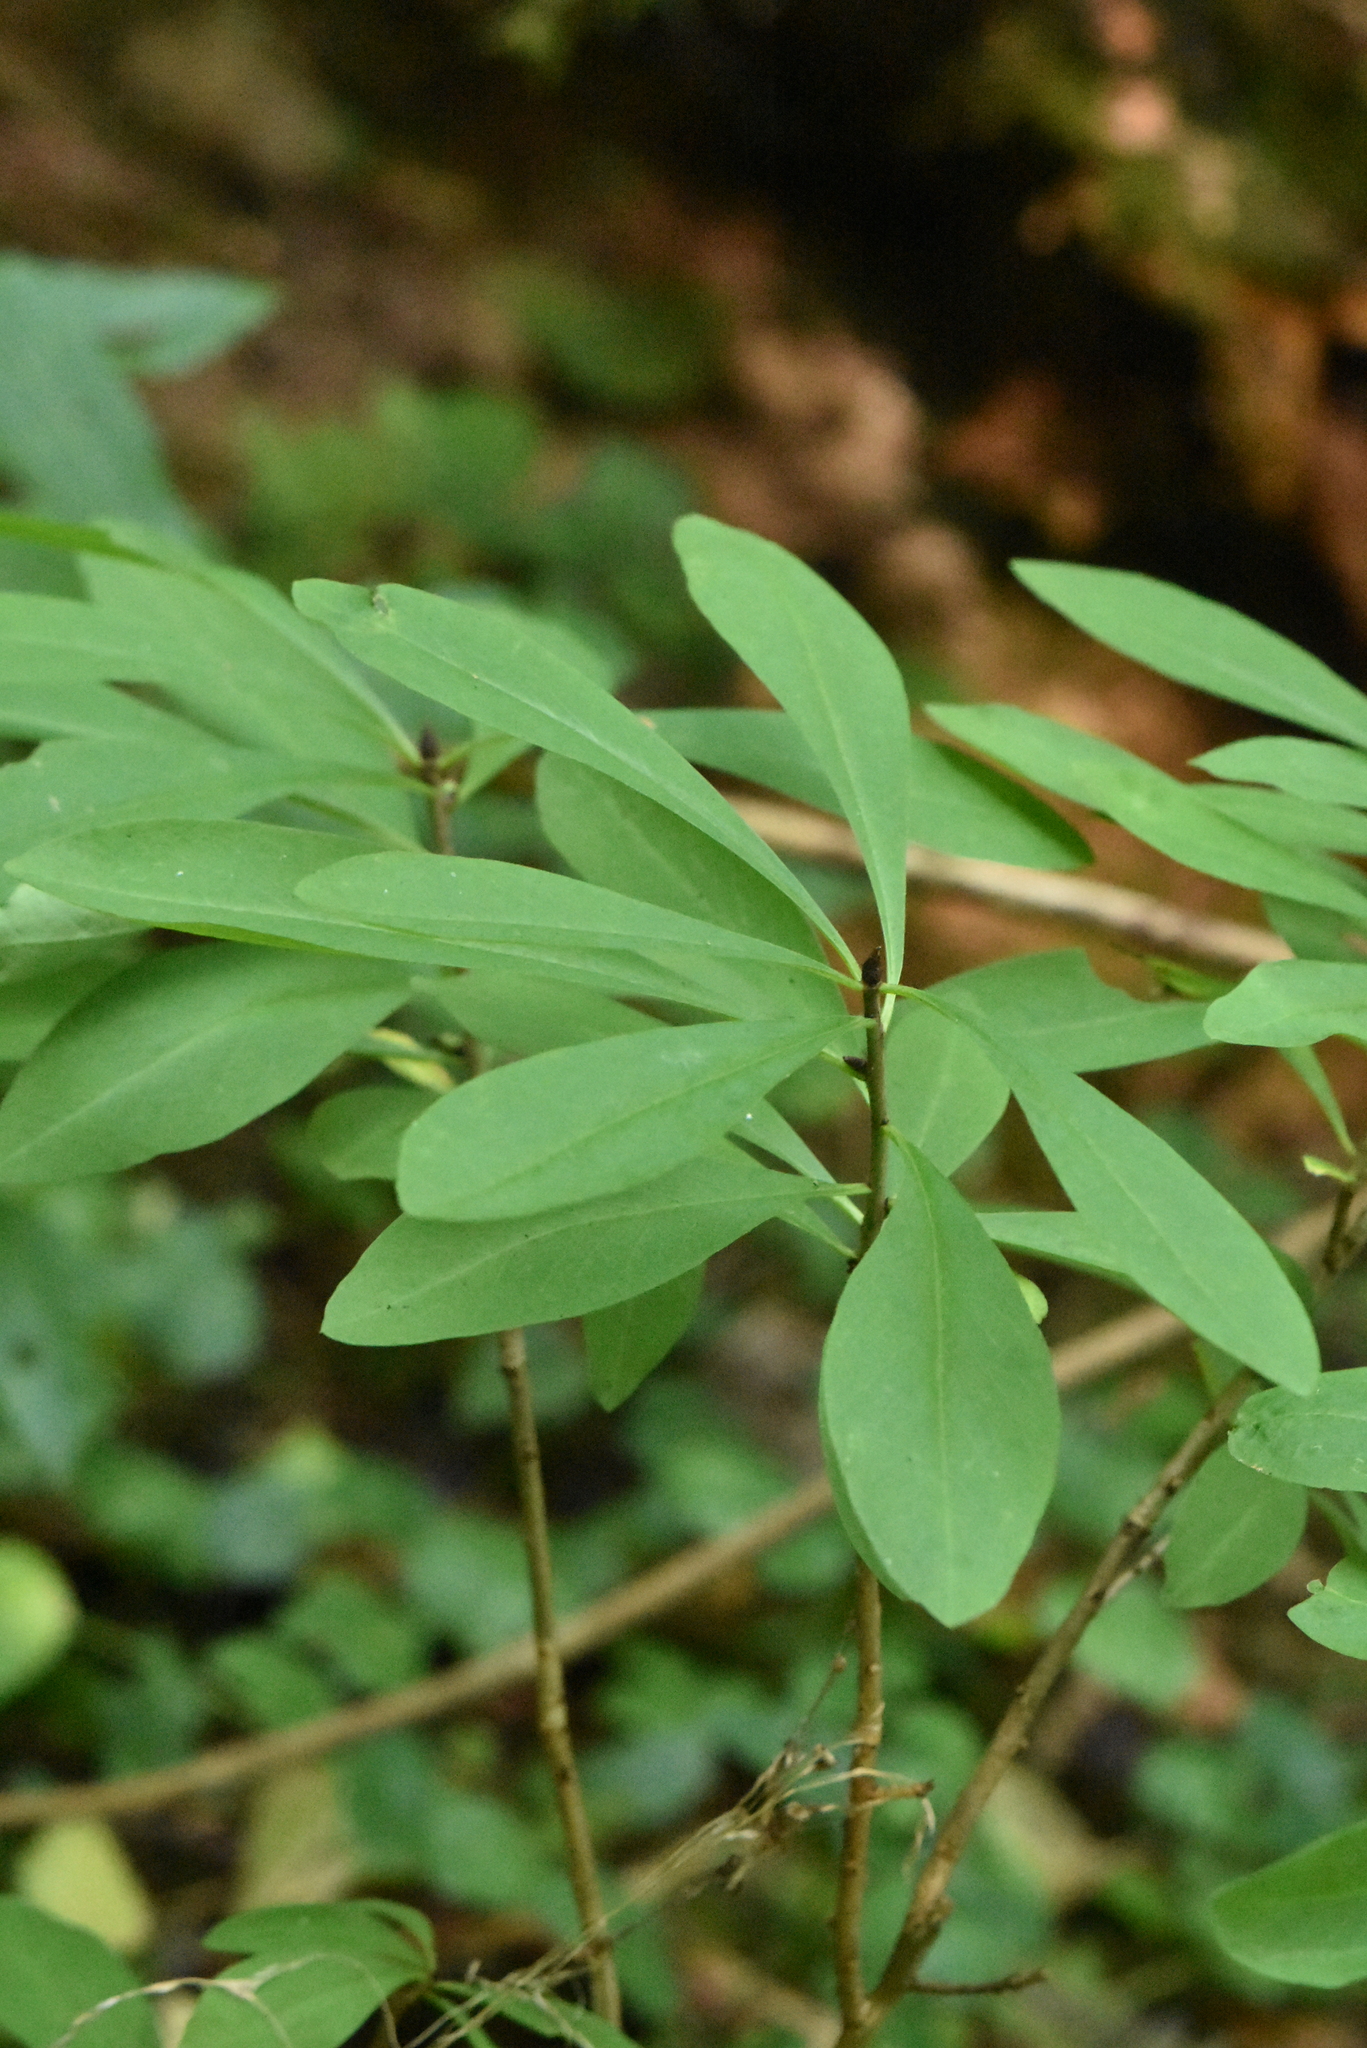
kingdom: Plantae
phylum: Tracheophyta
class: Magnoliopsida
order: Malvales
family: Thymelaeaceae
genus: Daphne
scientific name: Daphne mezereum
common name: Mezereon
